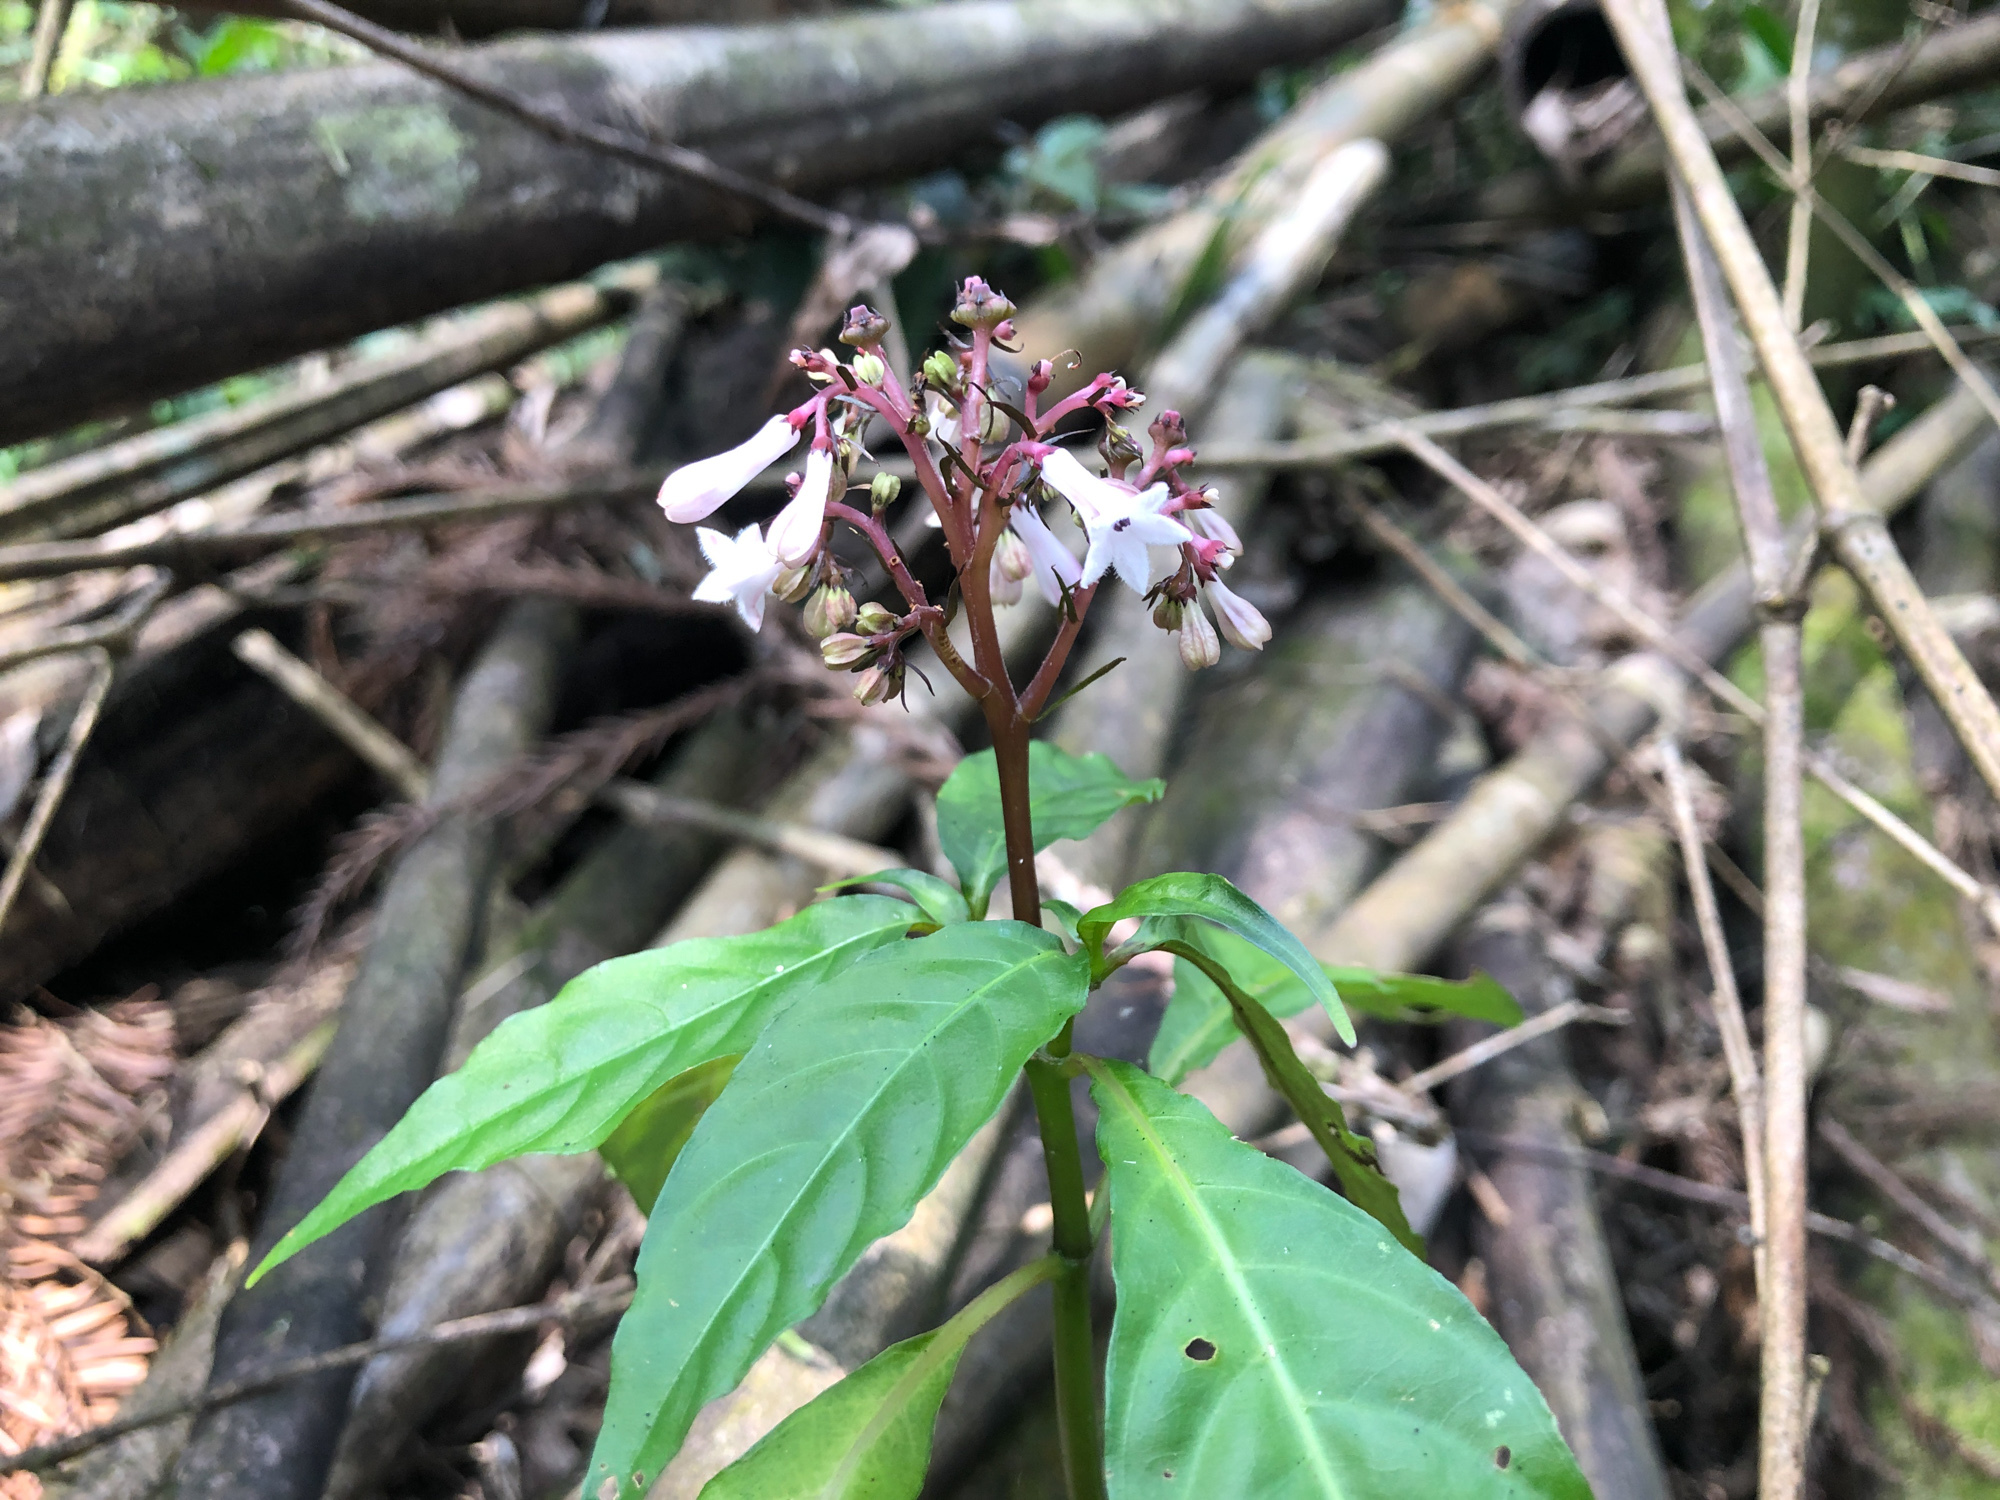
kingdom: Plantae
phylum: Tracheophyta
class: Magnoliopsida
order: Gentianales
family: Rubiaceae
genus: Ophiorrhiza
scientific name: Ophiorrhiza japonica
